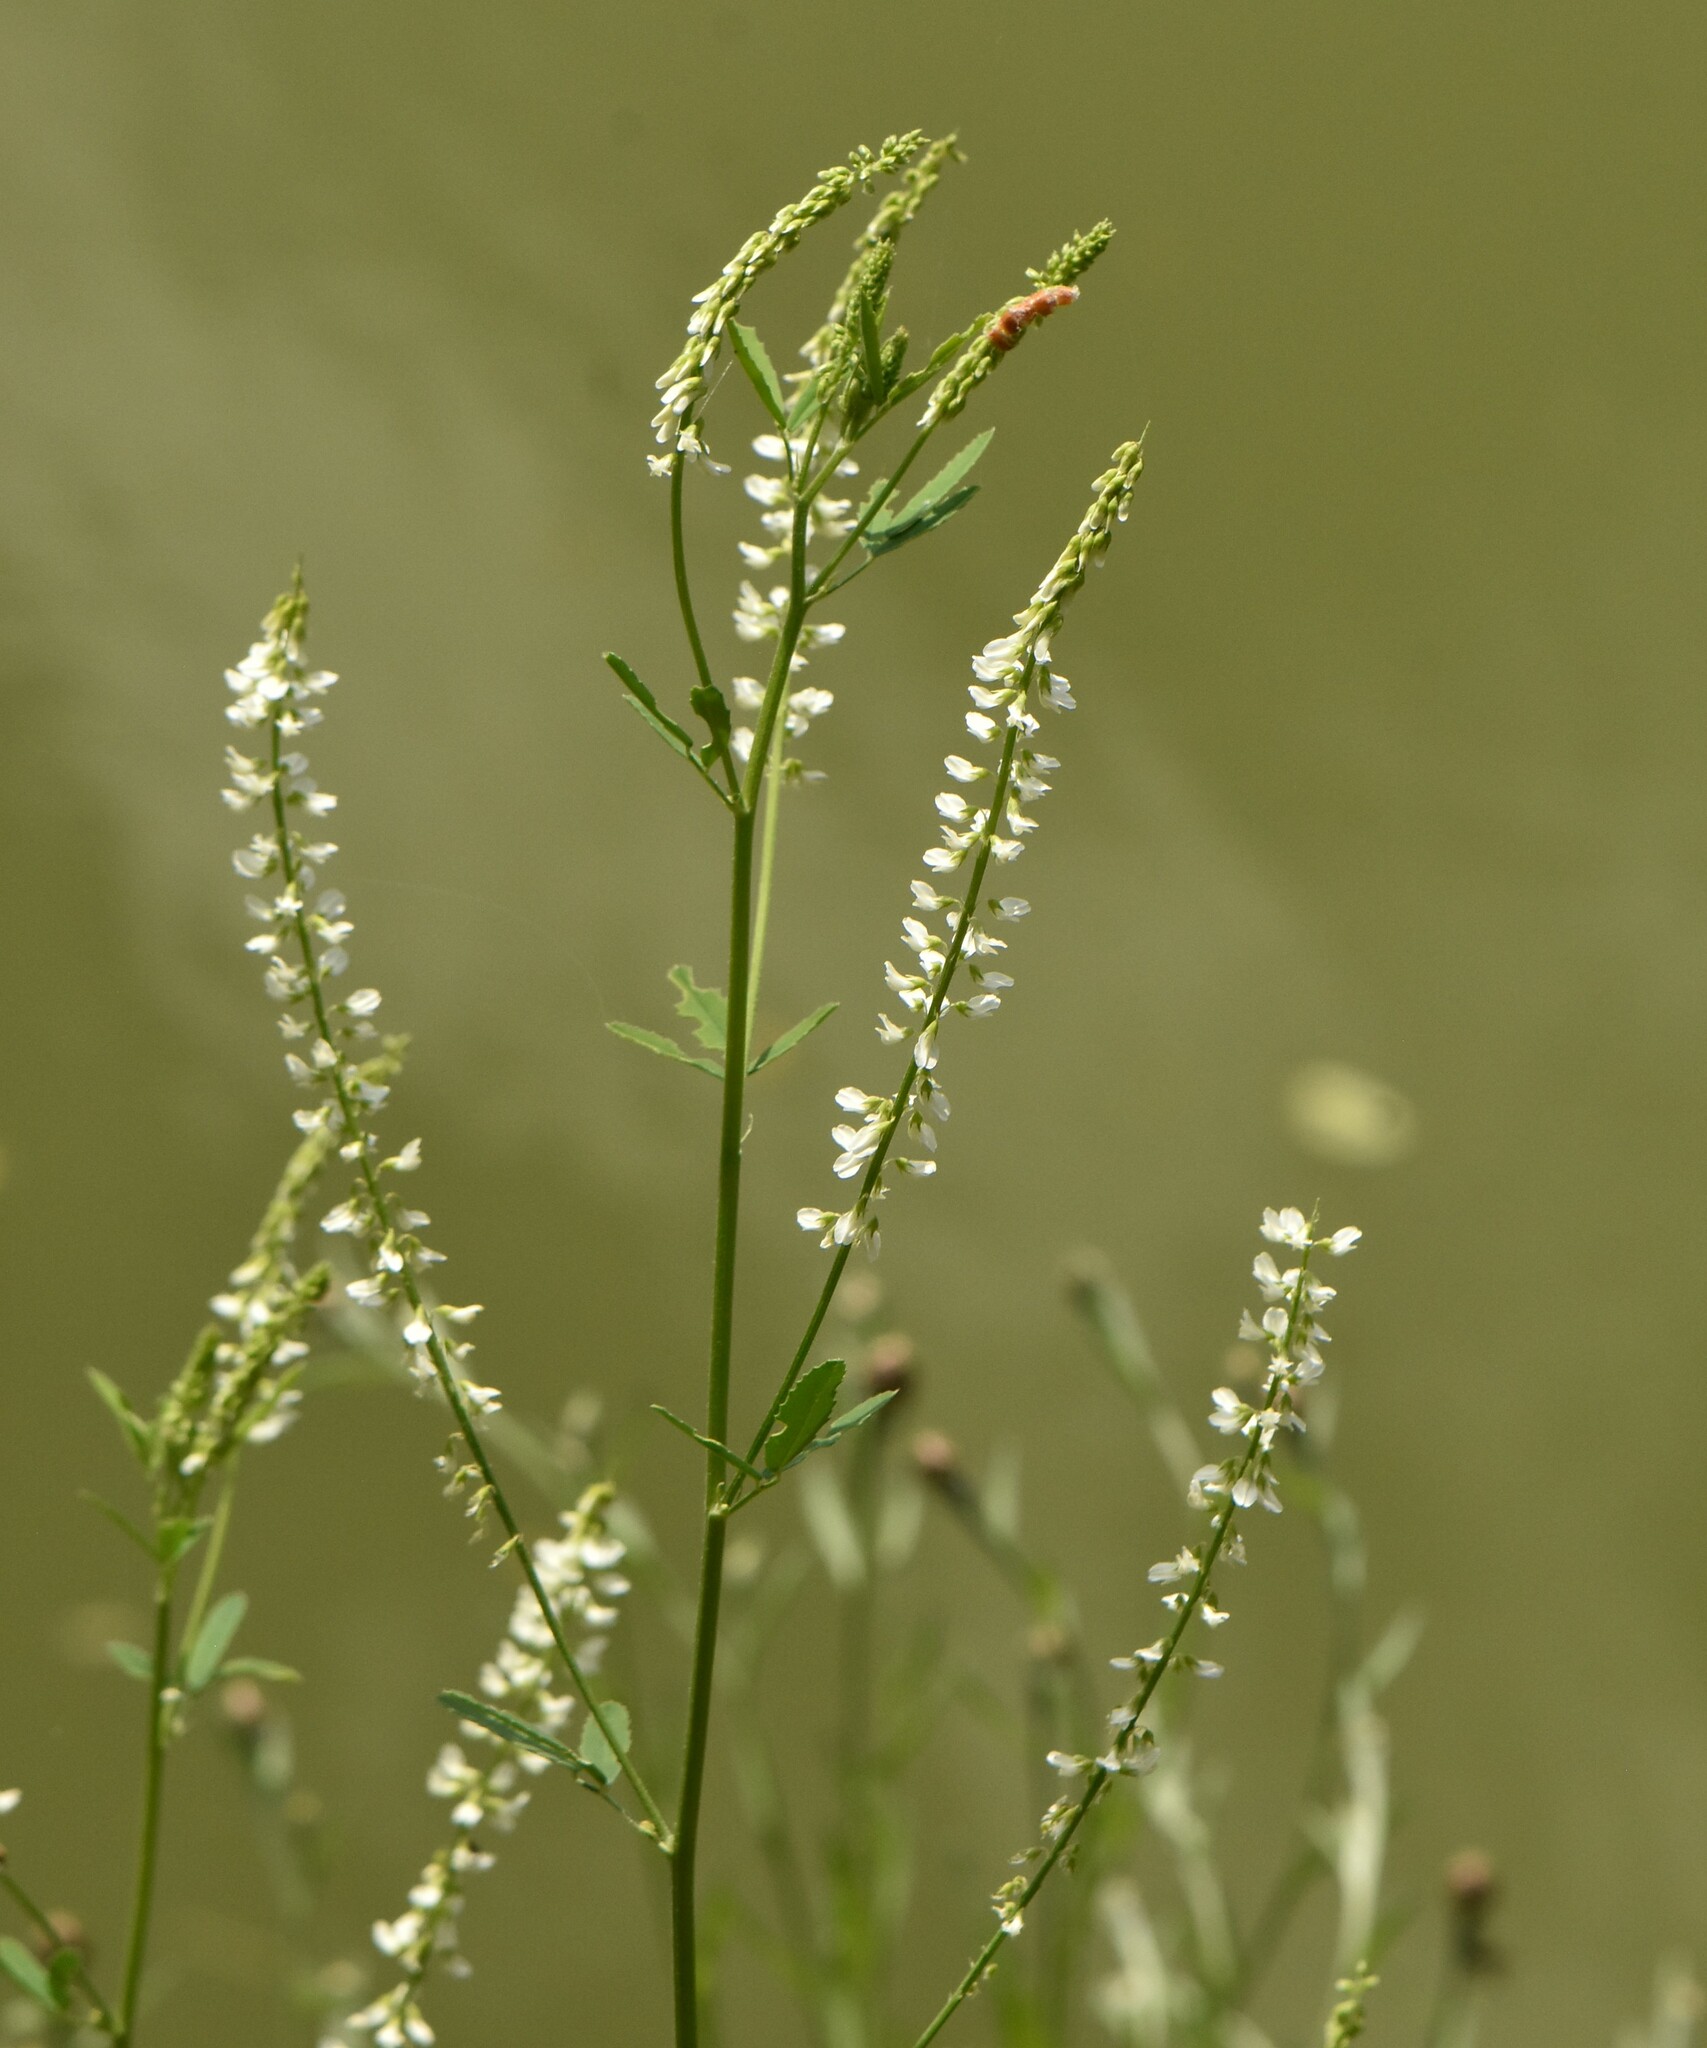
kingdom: Plantae
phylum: Tracheophyta
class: Magnoliopsida
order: Fabales
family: Fabaceae
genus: Melilotus
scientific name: Melilotus albus
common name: White melilot
